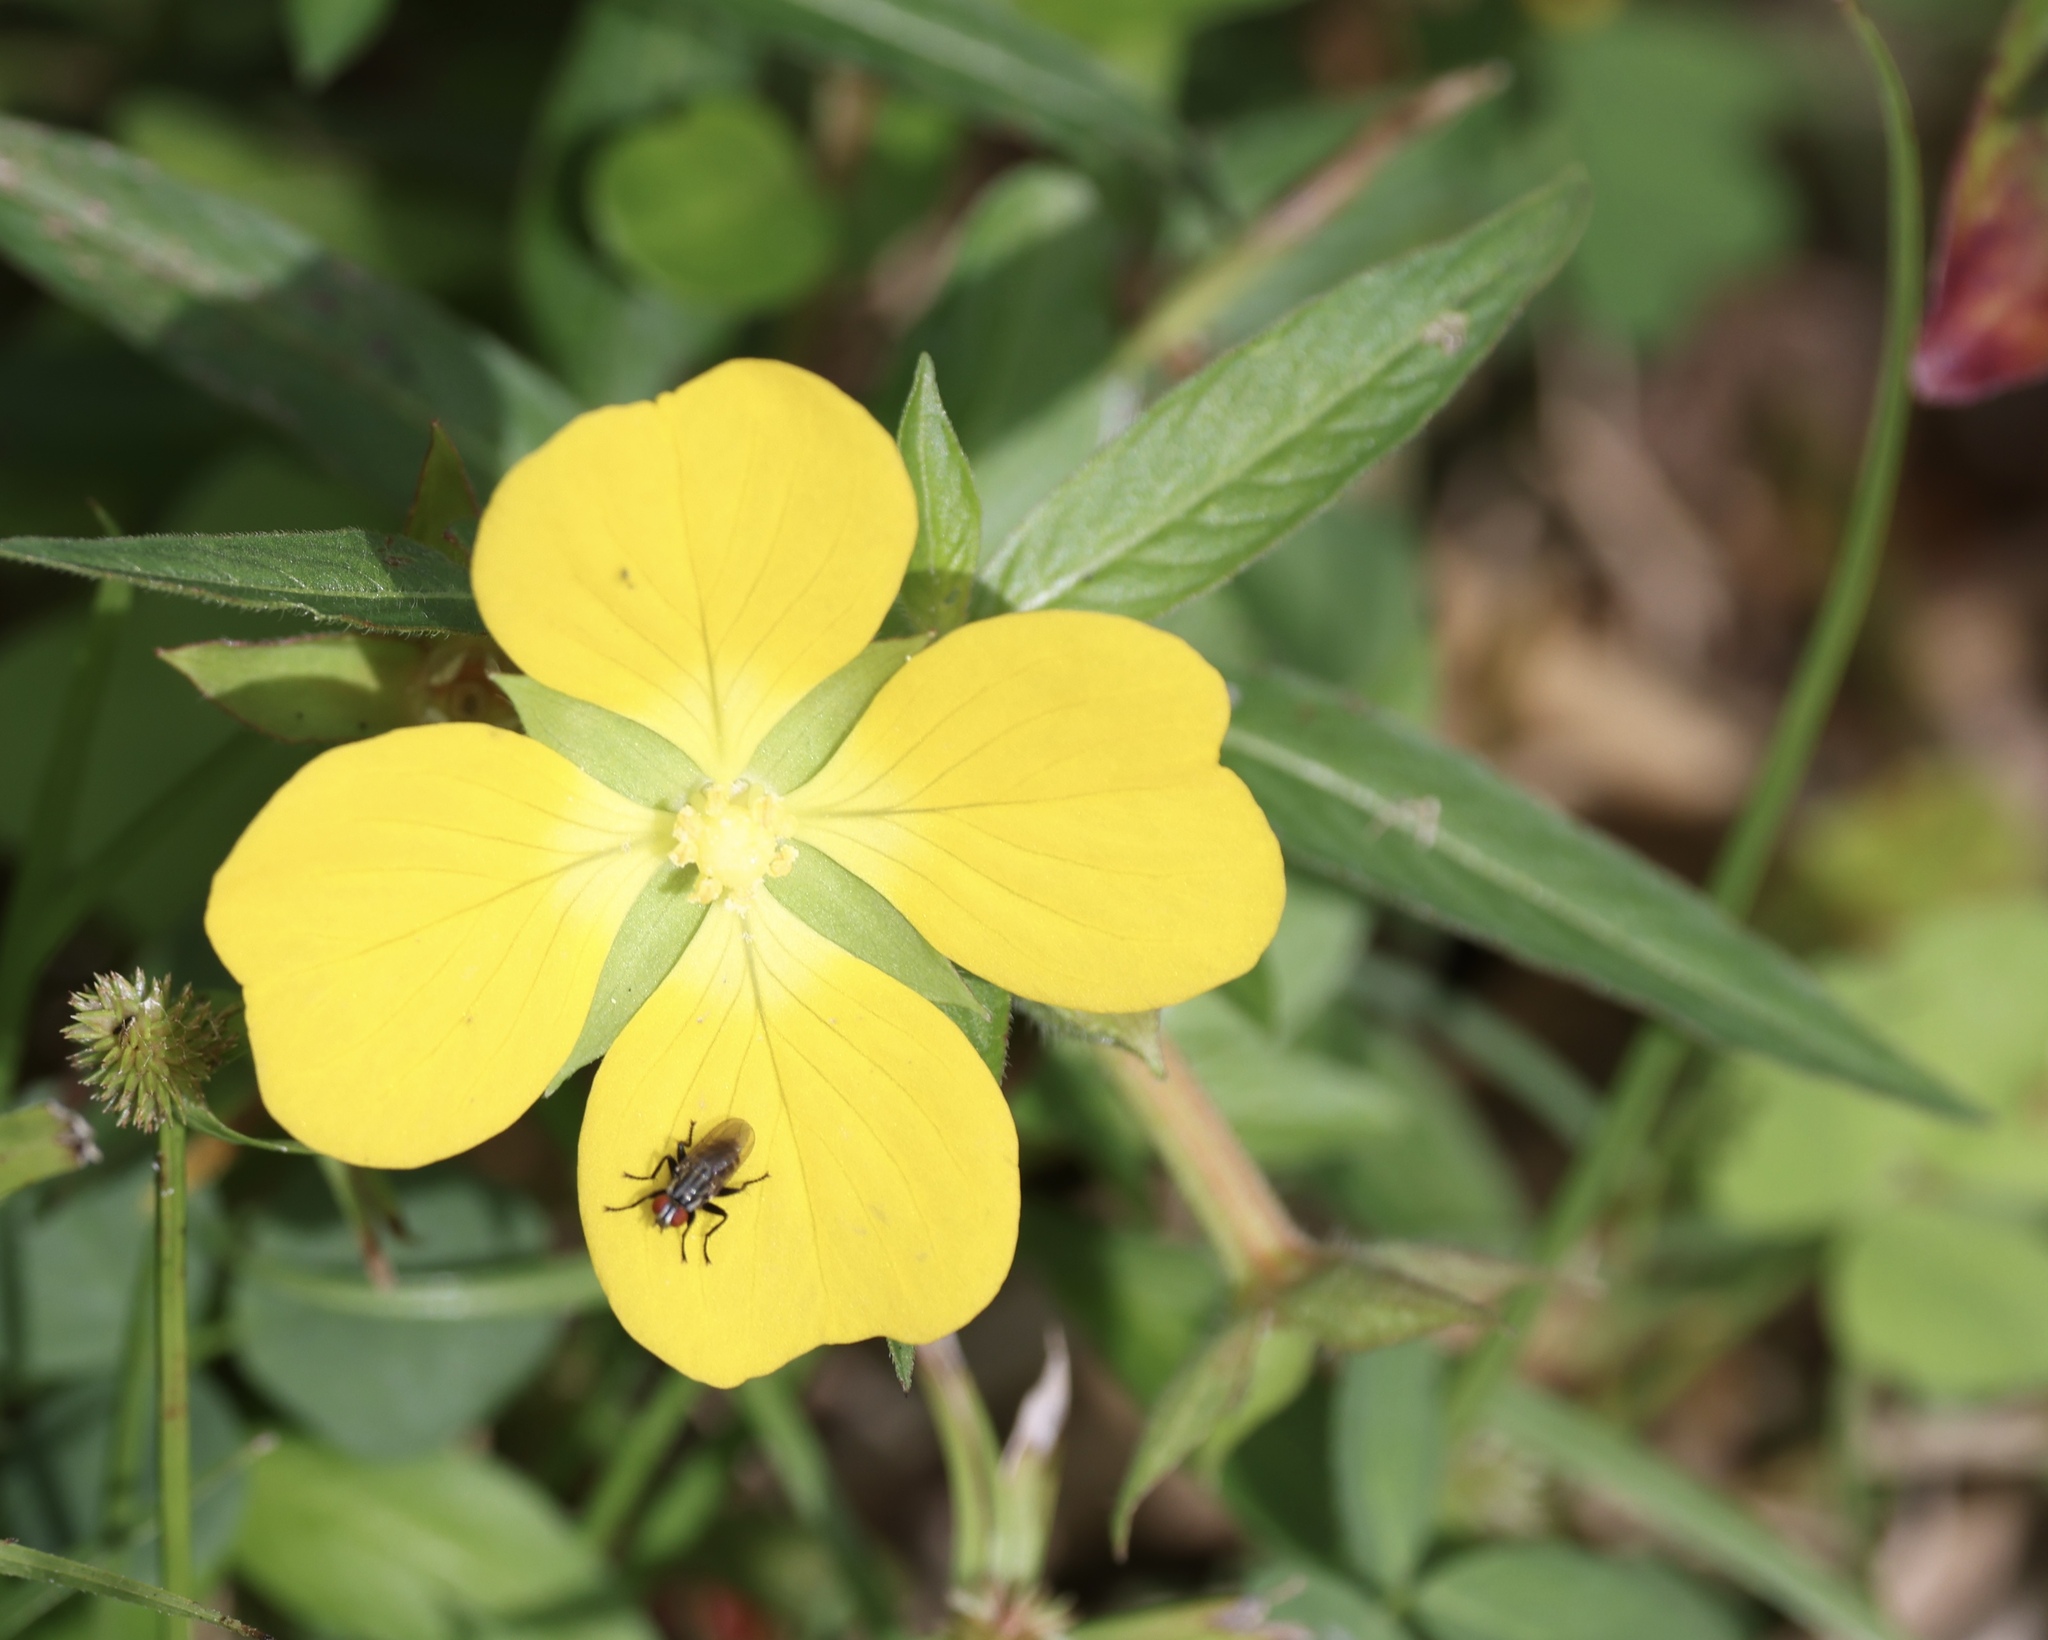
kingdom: Plantae
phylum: Tracheophyta
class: Magnoliopsida
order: Myrtales
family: Onagraceae
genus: Ludwigia
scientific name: Ludwigia octovalvis
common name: Water-primrose
